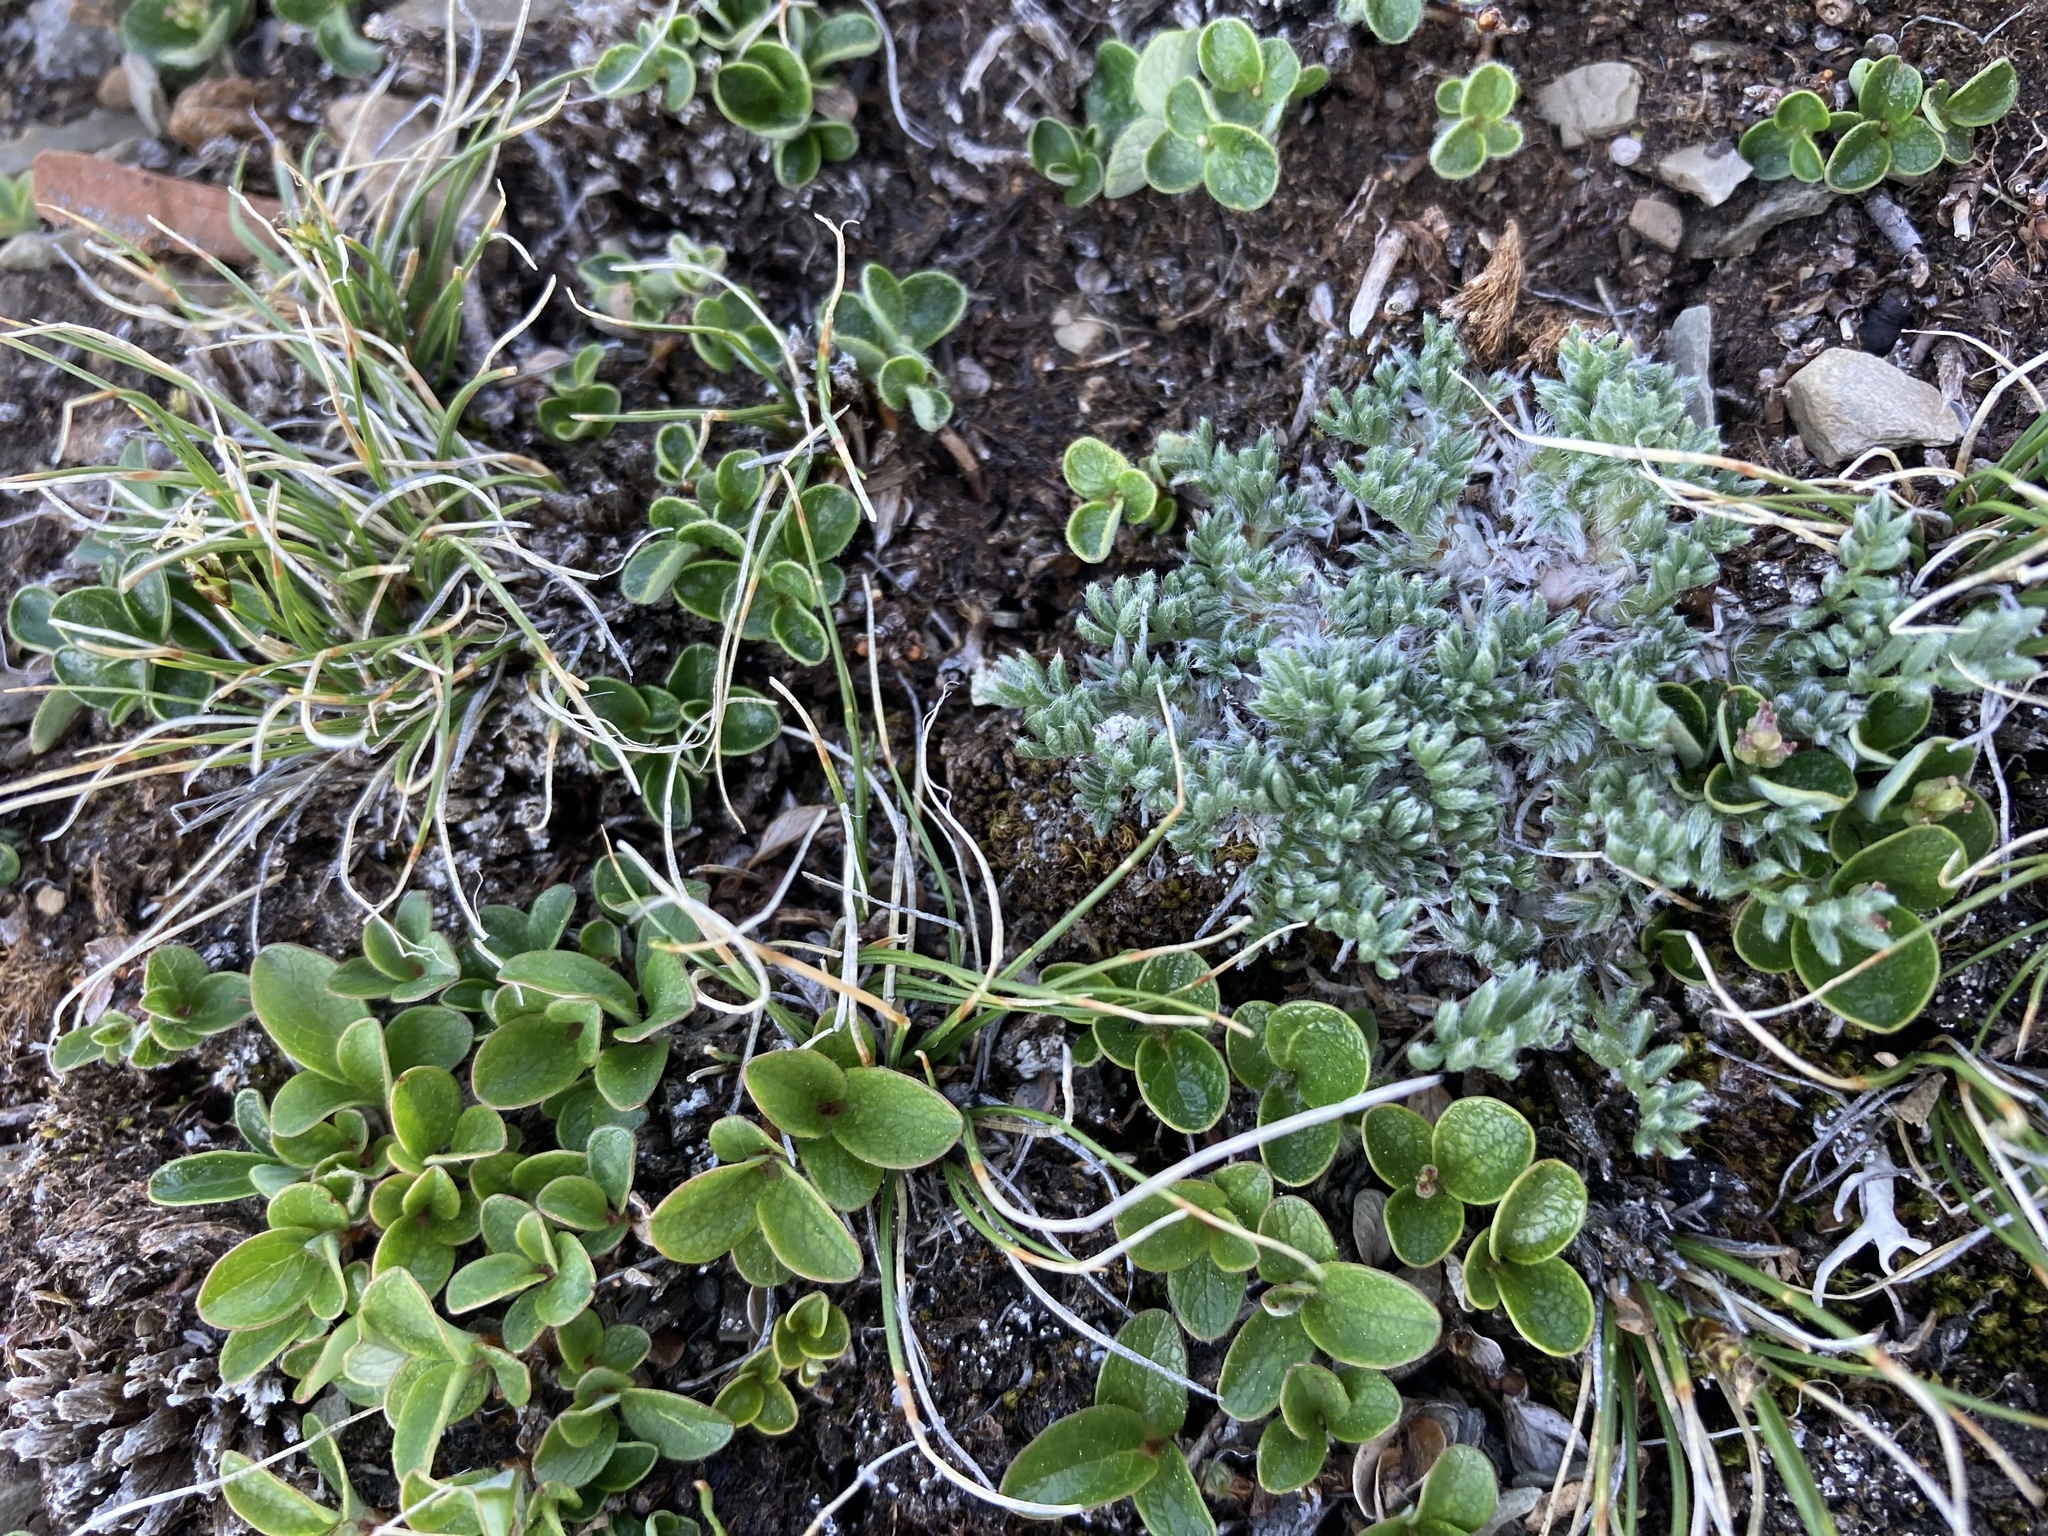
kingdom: Plantae
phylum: Tracheophyta
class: Magnoliopsida
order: Fabales
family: Fabaceae
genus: Oxytropis
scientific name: Oxytropis podocarpa
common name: Gray's oxytrope
